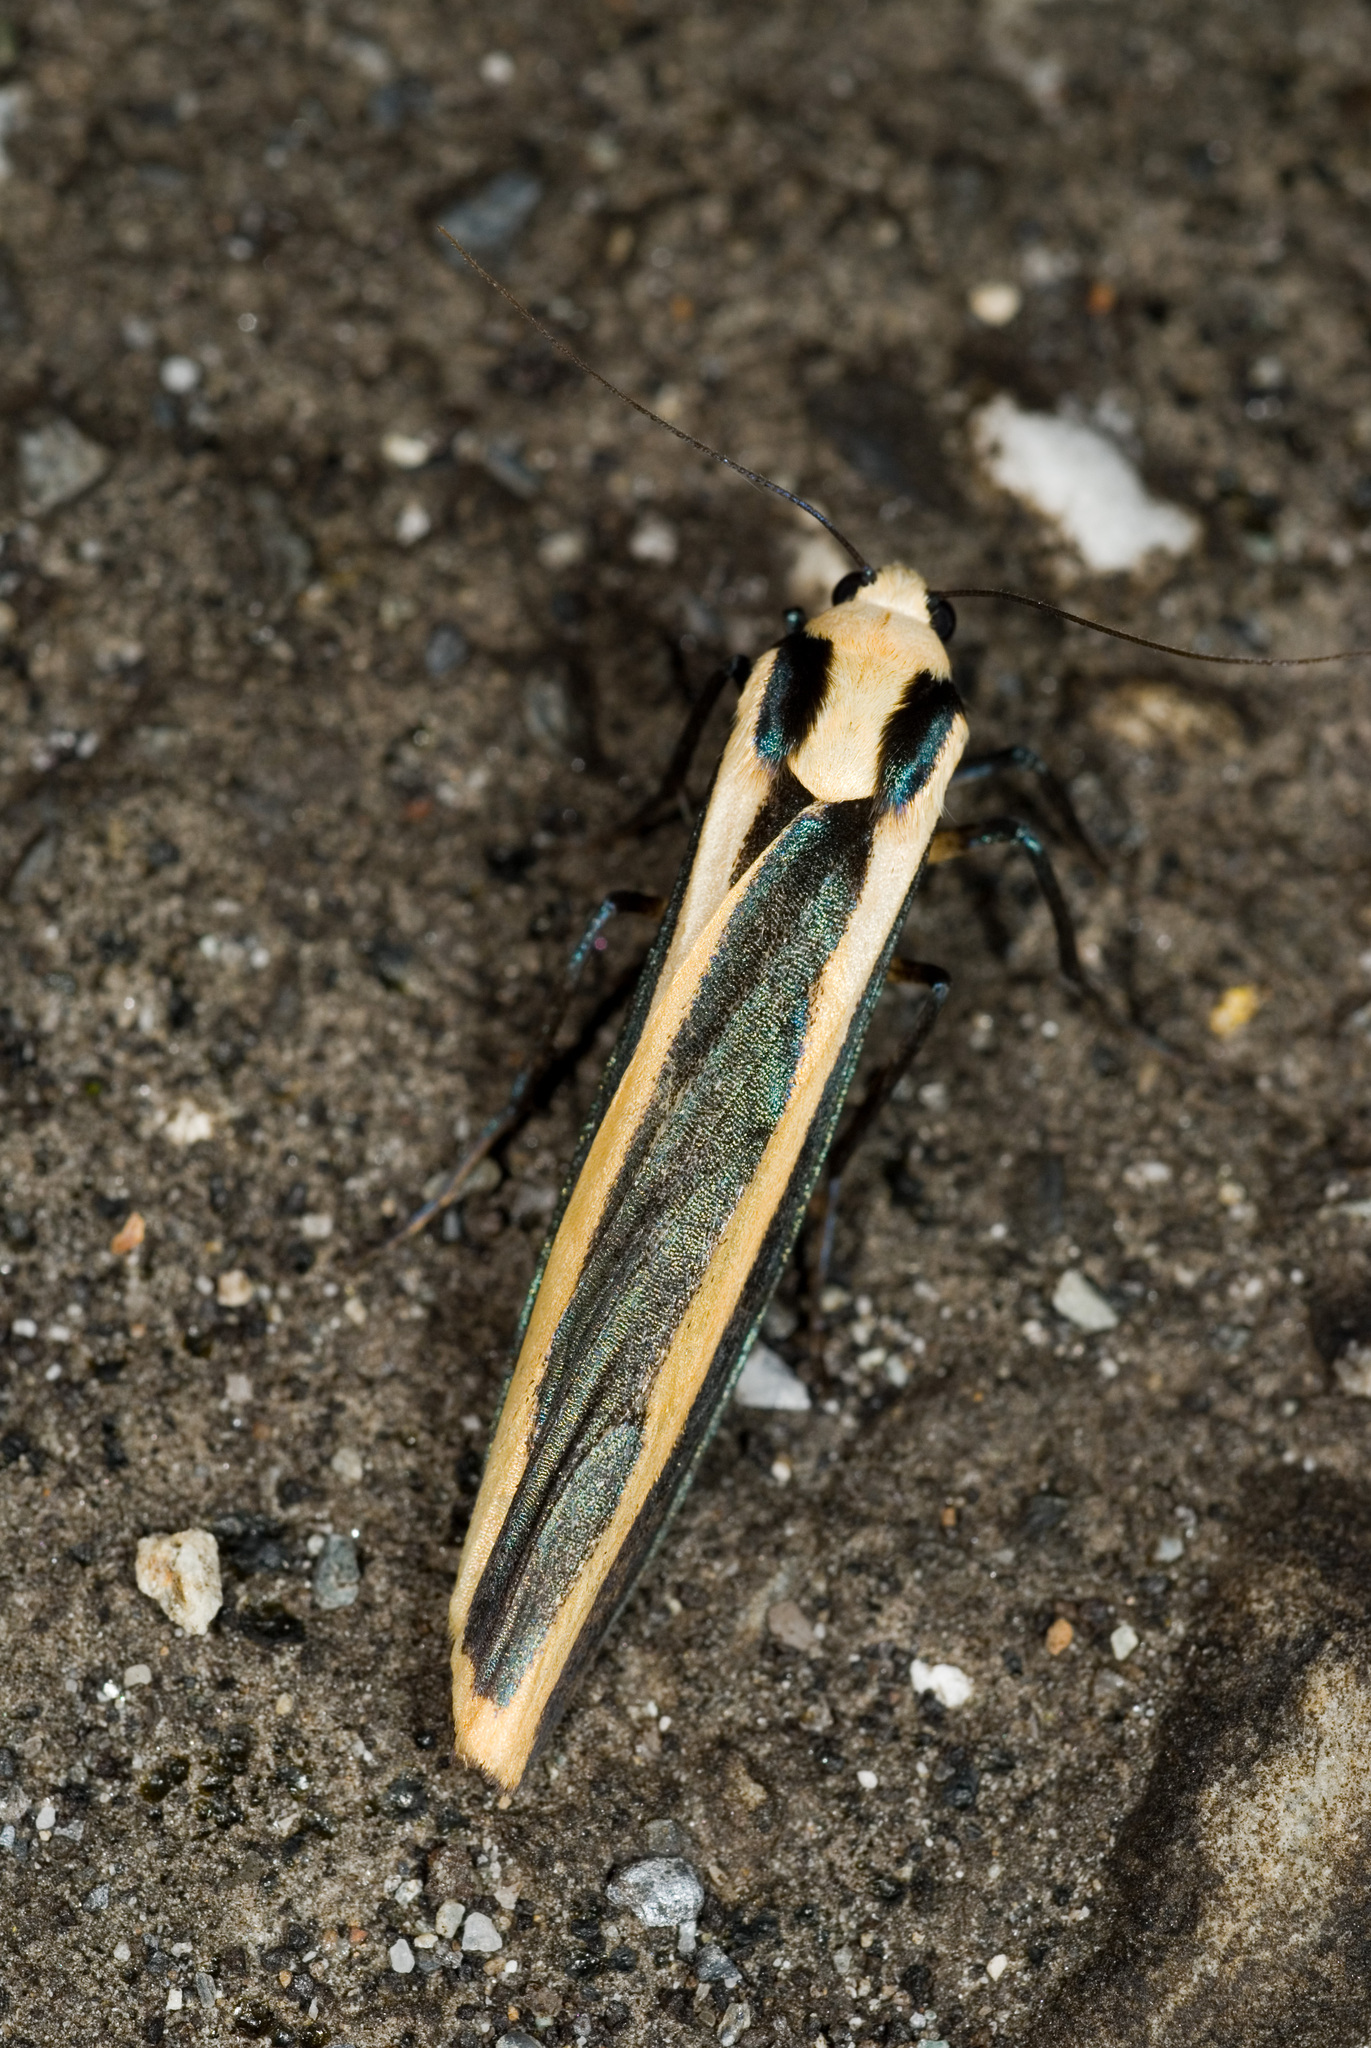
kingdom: Animalia
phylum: Arthropoda
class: Insecta
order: Lepidoptera
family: Erebidae
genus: Chrysorabdia
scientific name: Chrysorabdia vilemani
